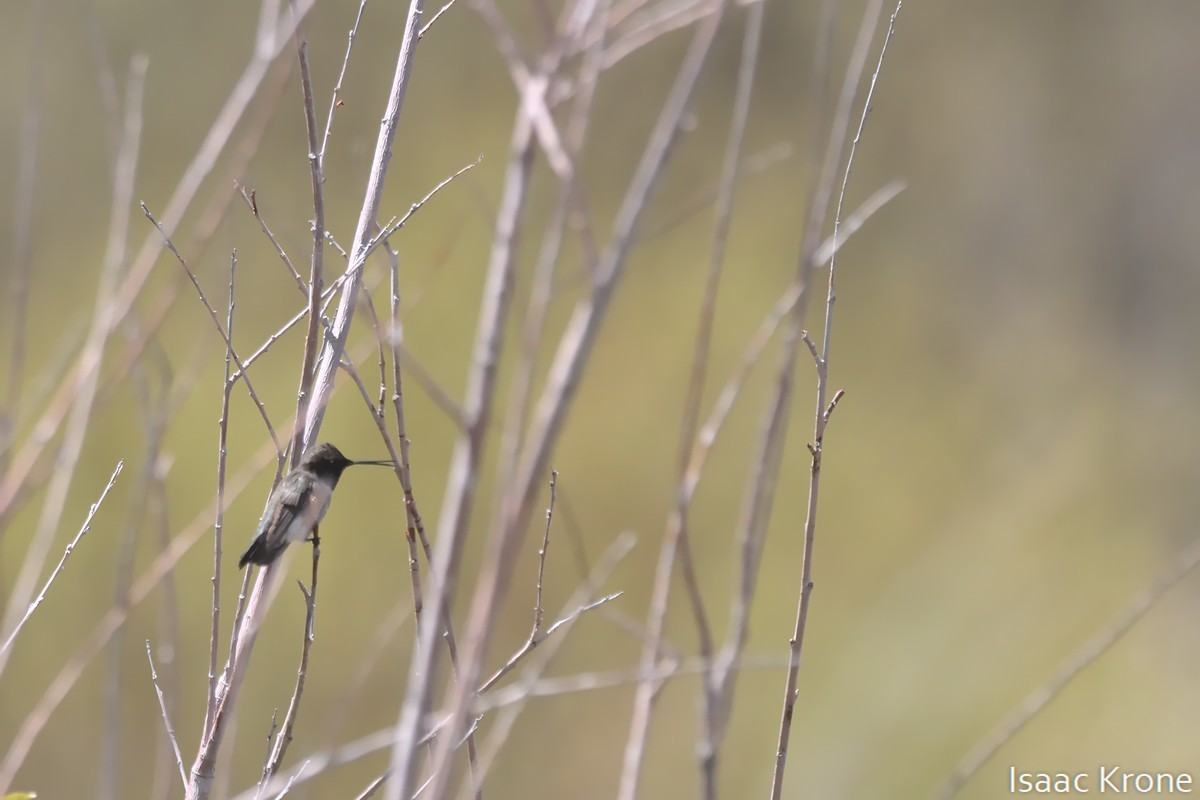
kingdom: Animalia
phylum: Chordata
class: Aves
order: Apodiformes
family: Trochilidae
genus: Archilochus
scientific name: Archilochus alexandri
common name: Black-chinned hummingbird
